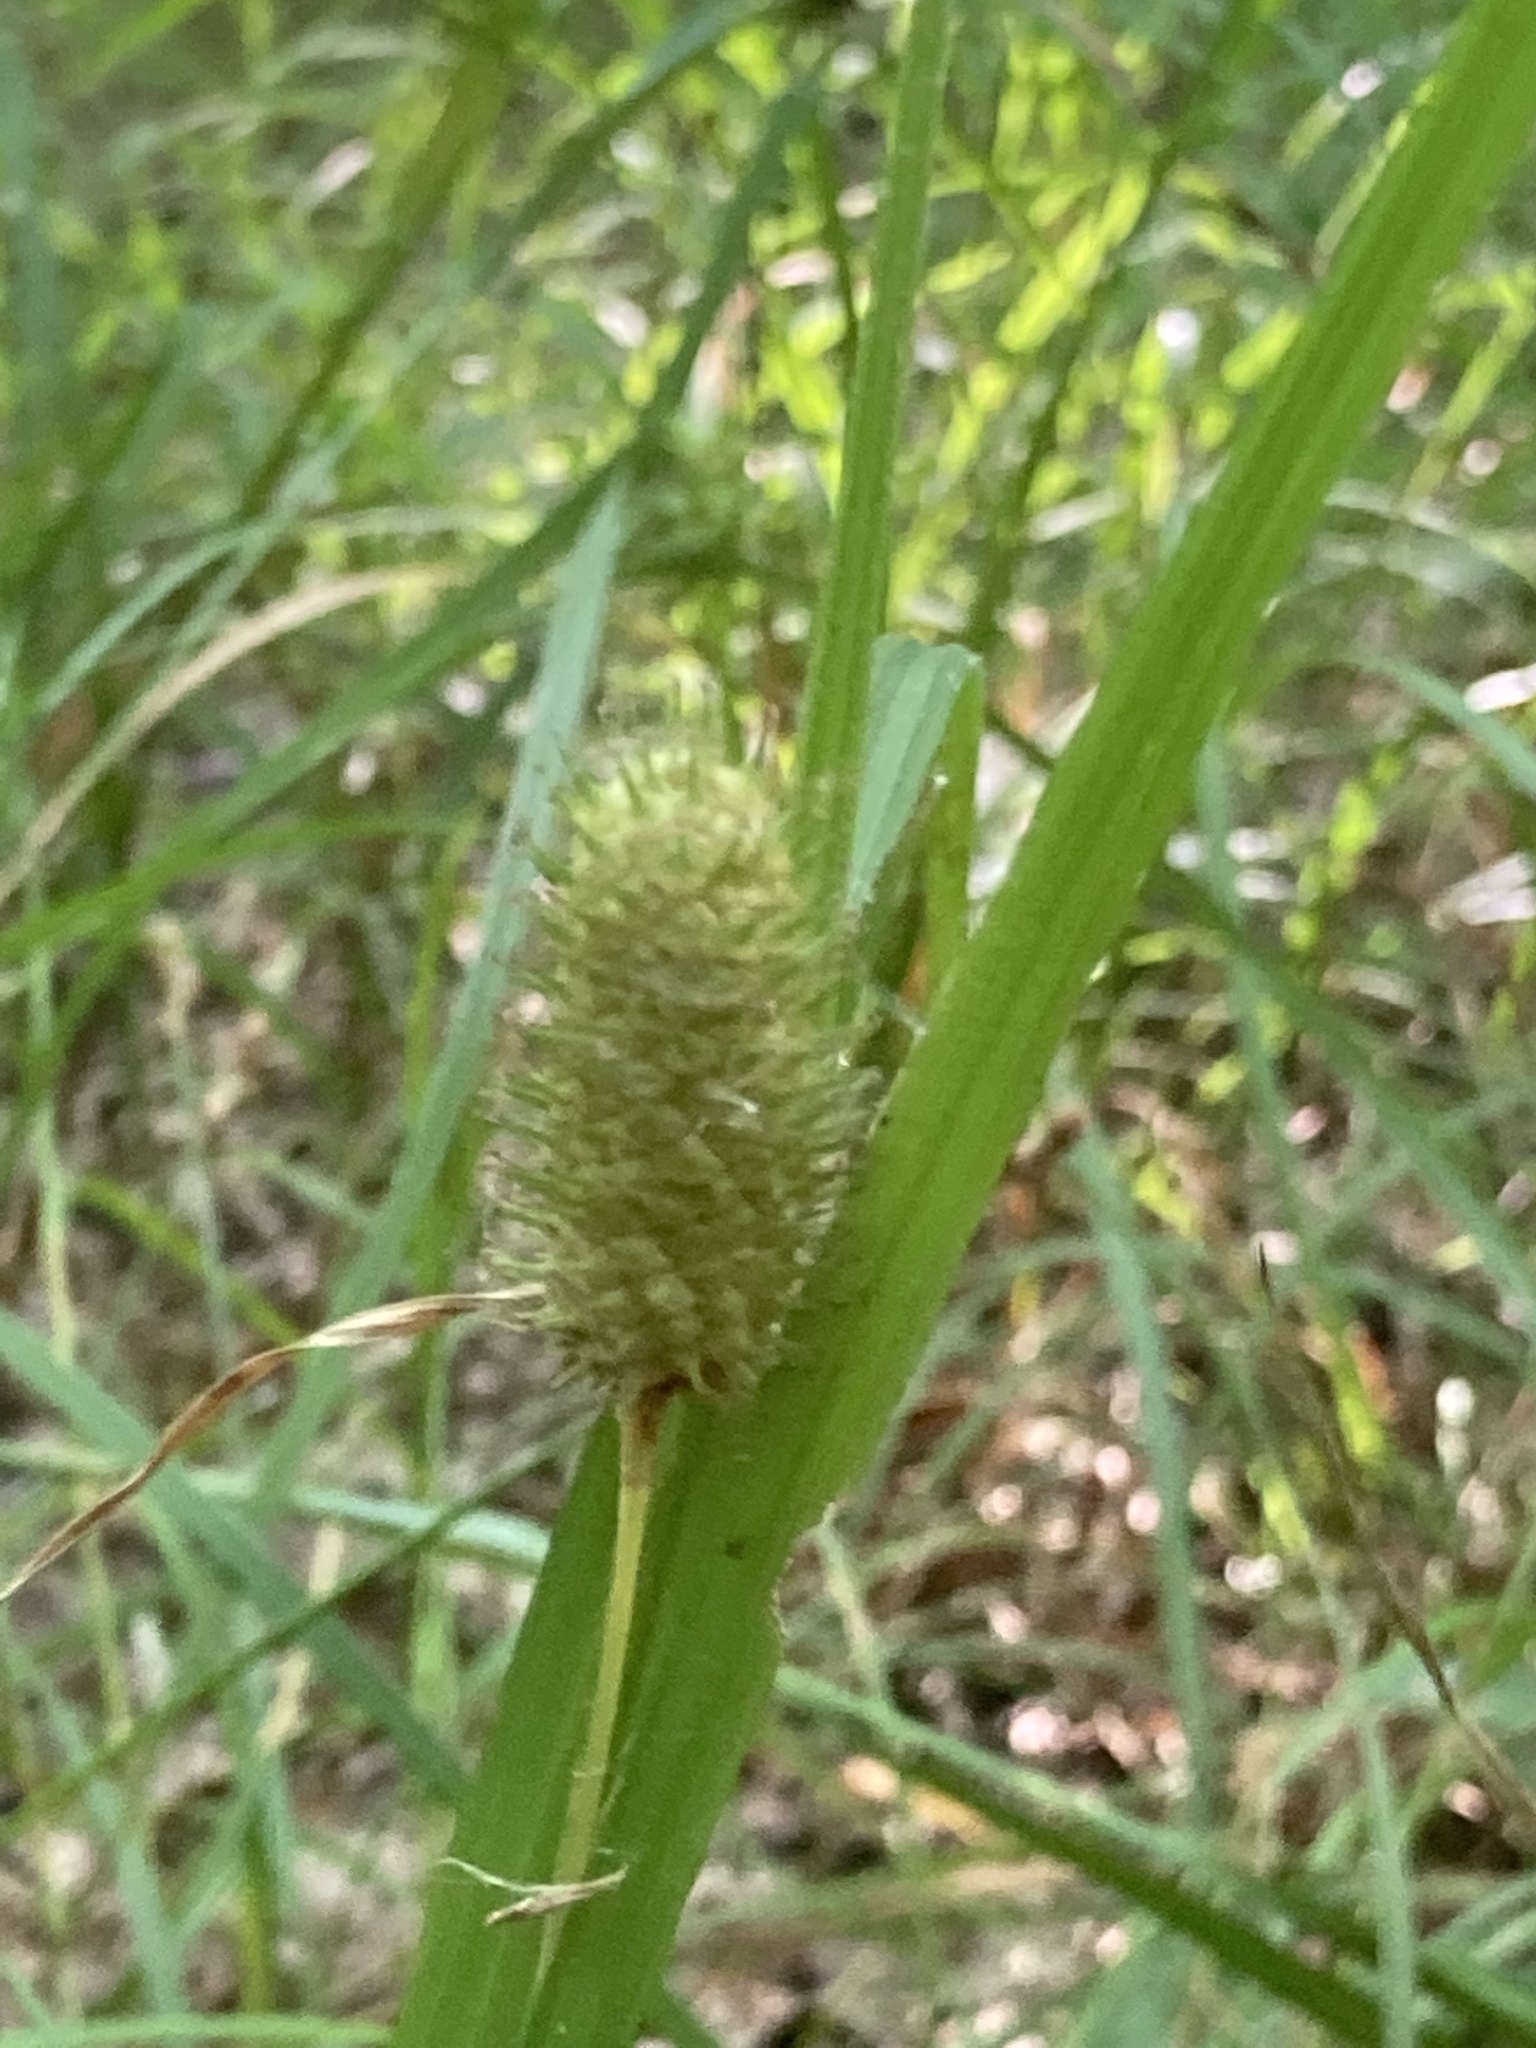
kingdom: Plantae
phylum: Tracheophyta
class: Liliopsida
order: Poales
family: Cyperaceae
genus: Carex
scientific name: Carex squarrosa
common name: Narrow-leaved cattail sedge
